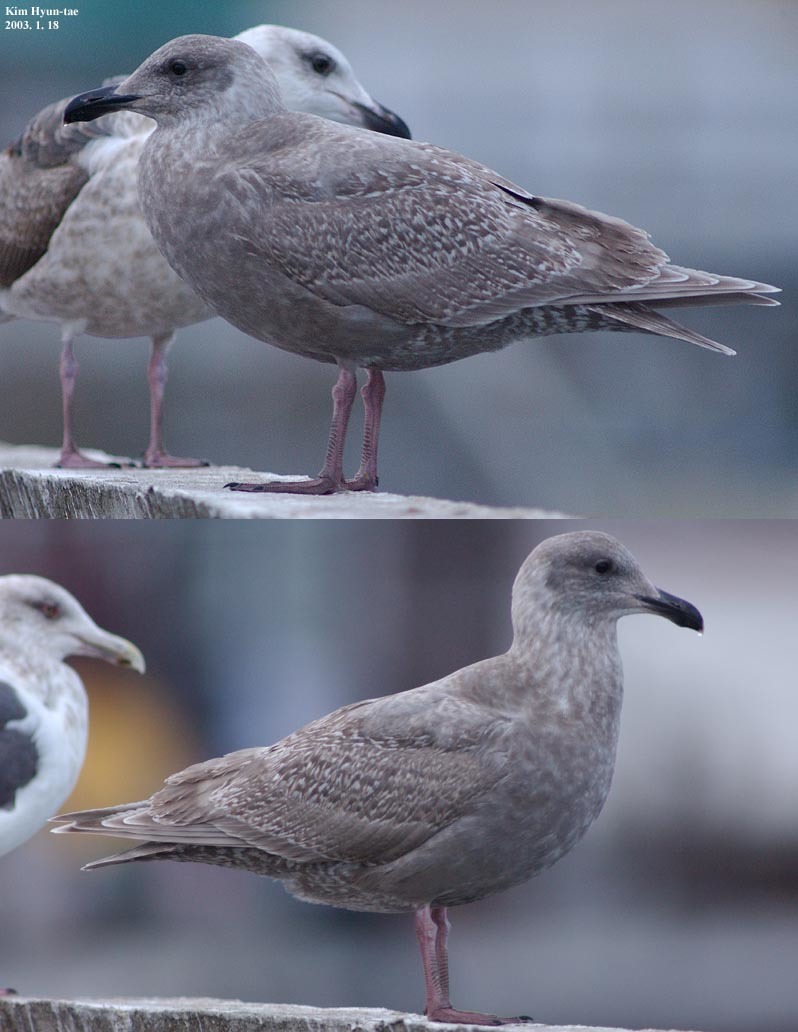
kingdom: Animalia
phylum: Chordata
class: Aves
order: Charadriiformes
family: Laridae
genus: Larus
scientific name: Larus glaucescens
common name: Glaucous-winged gull
